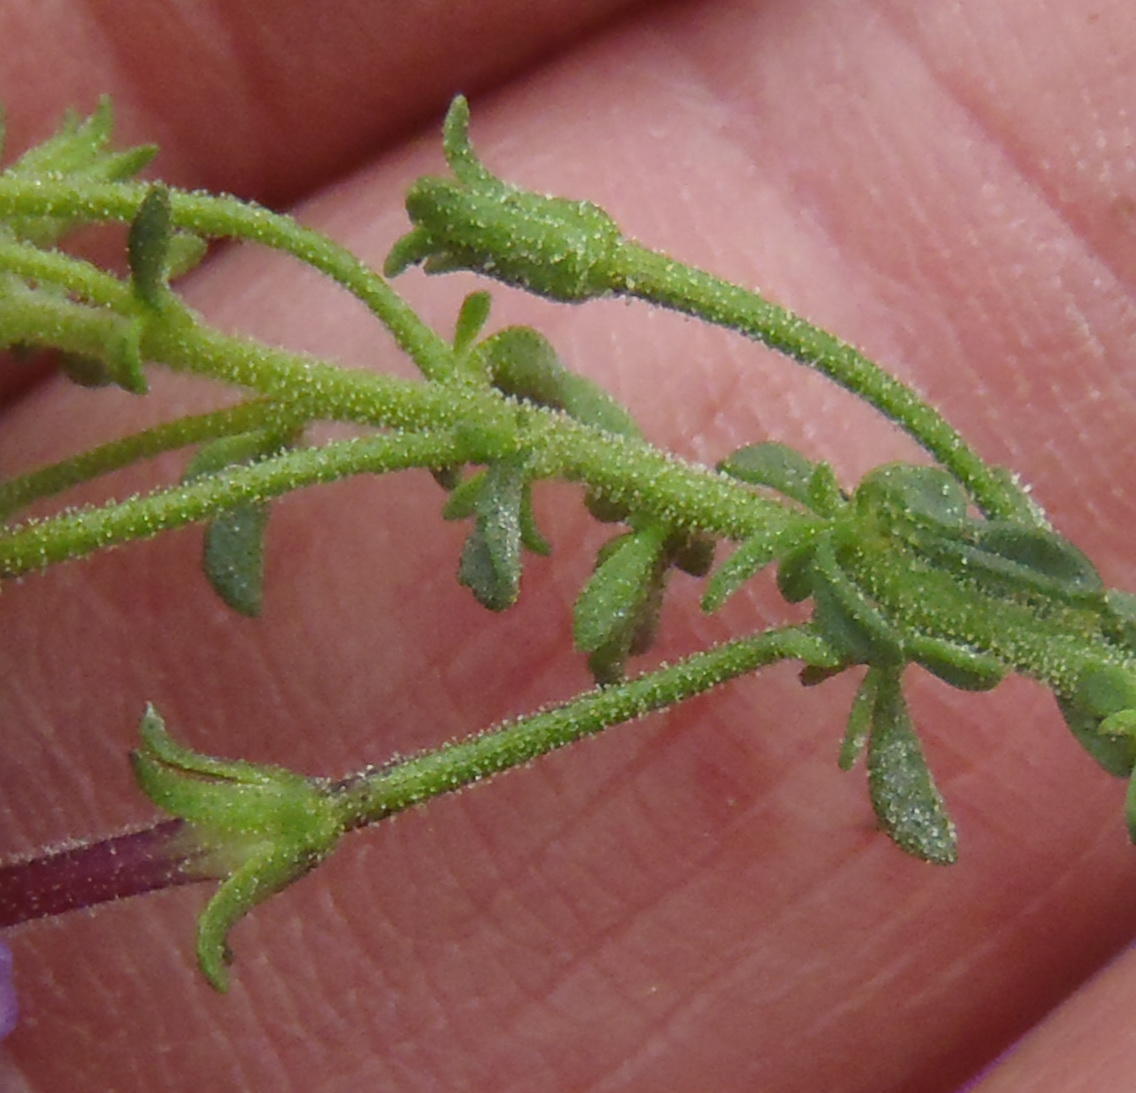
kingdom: Plantae
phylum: Tracheophyta
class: Magnoliopsida
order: Lamiales
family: Scrophulariaceae
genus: Jamesbrittenia
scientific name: Jamesbrittenia stellata
